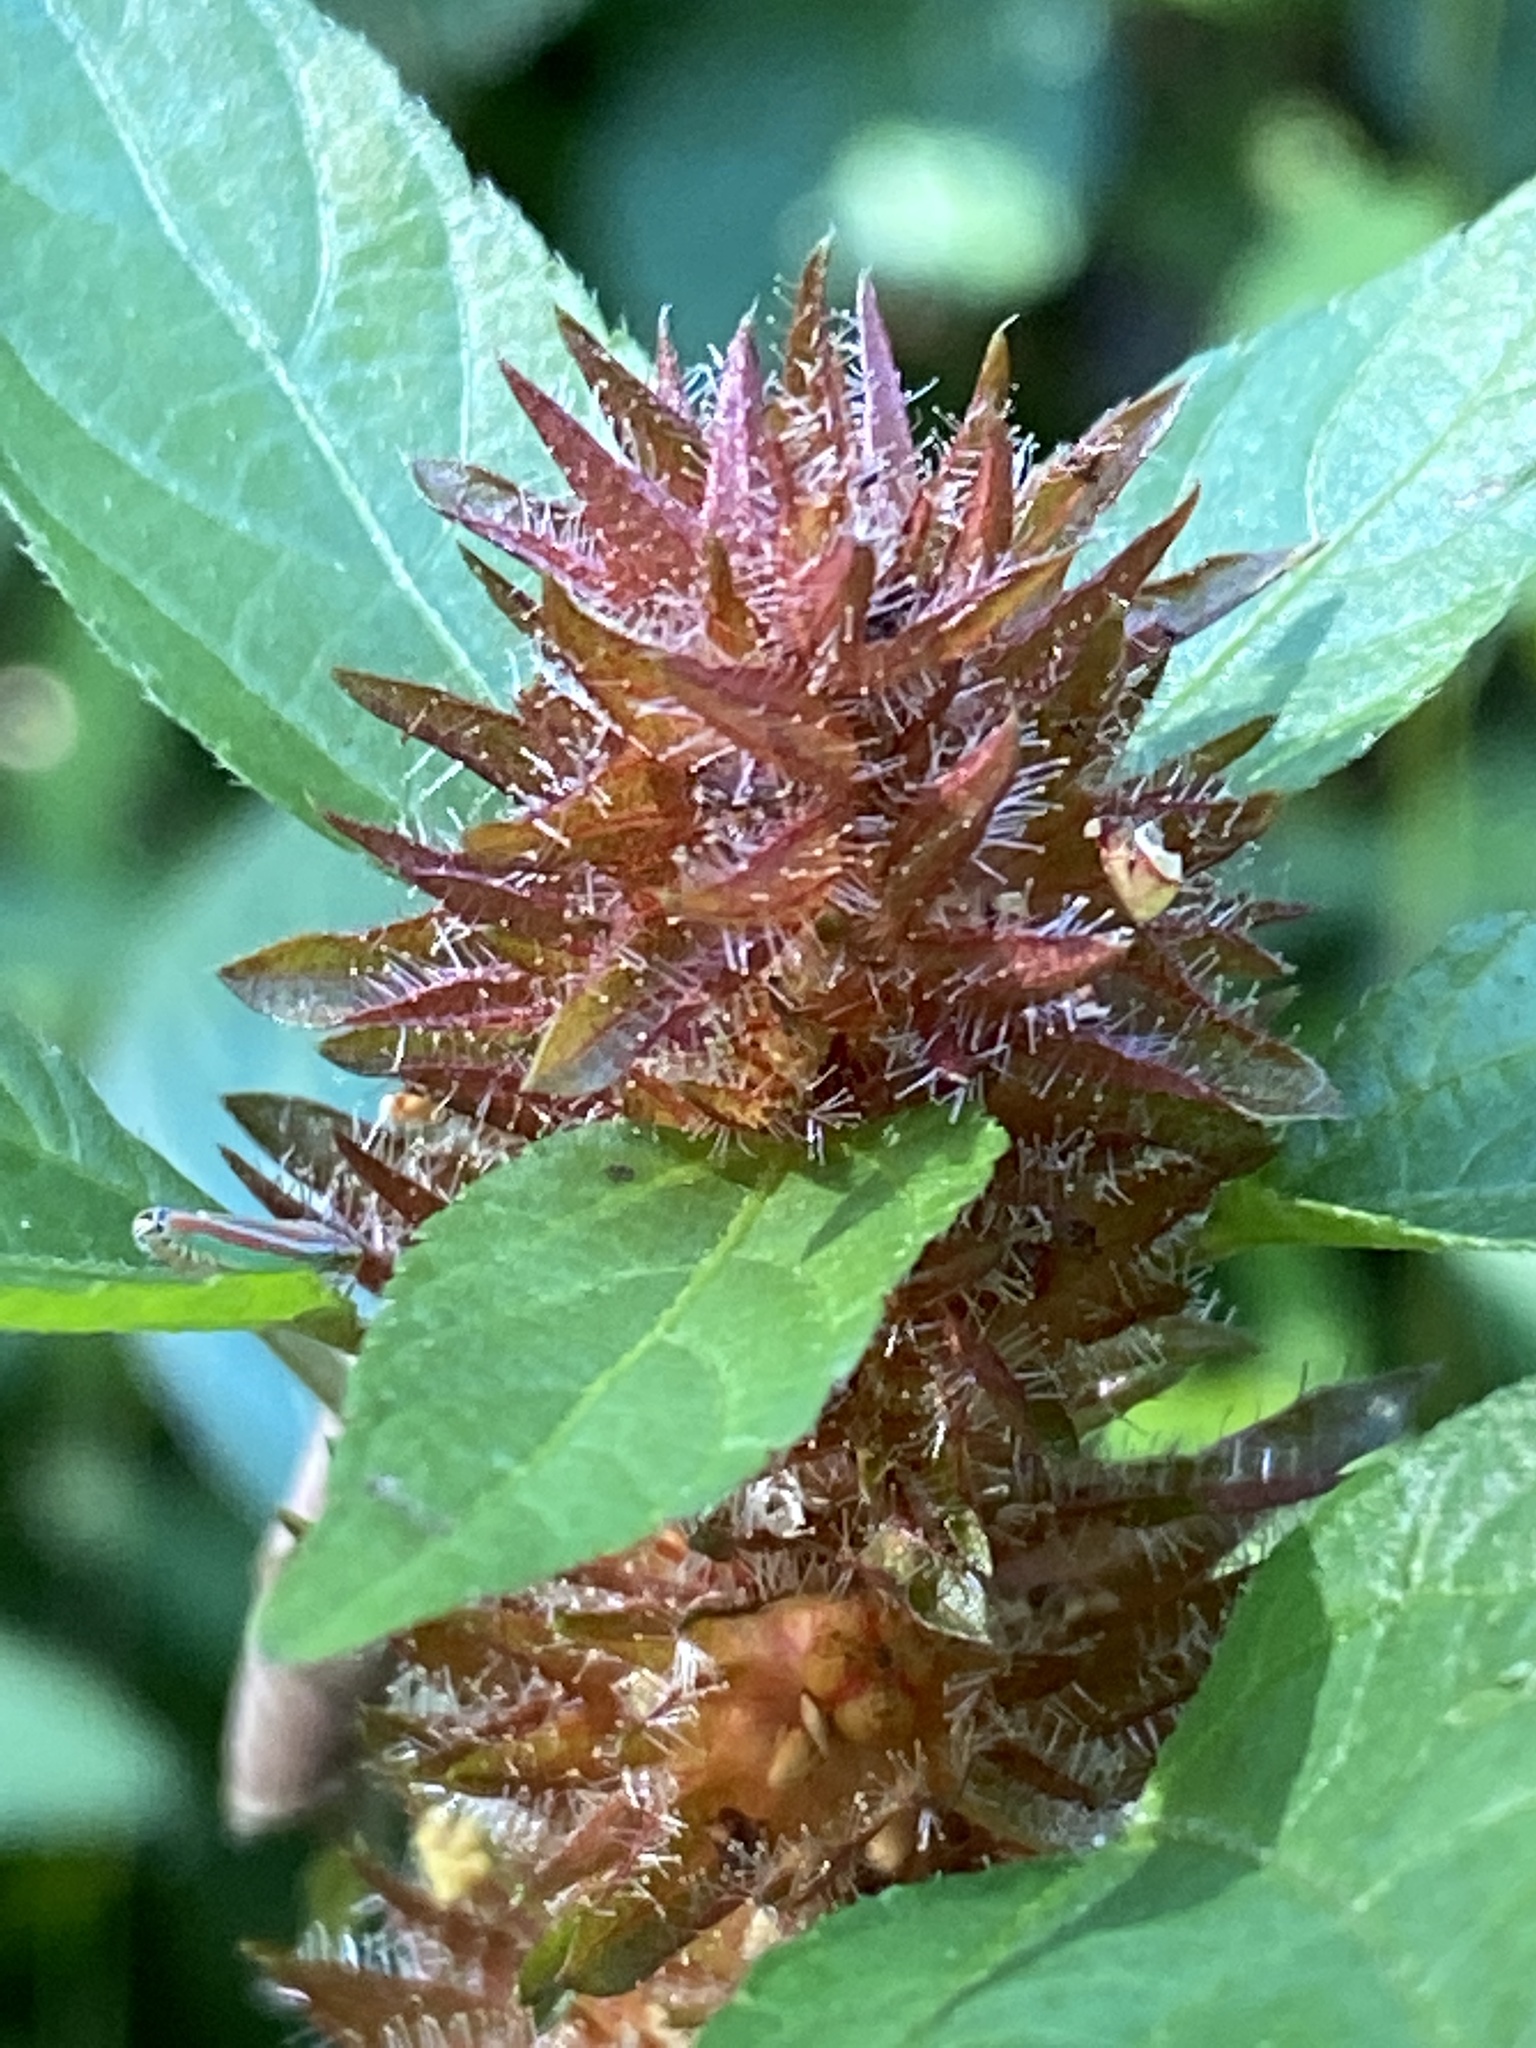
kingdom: Plantae
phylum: Tracheophyta
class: Magnoliopsida
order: Malpighiales
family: Euphorbiaceae
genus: Acalypha
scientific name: Acalypha rhomboidea
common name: Rhombic copperleaf
